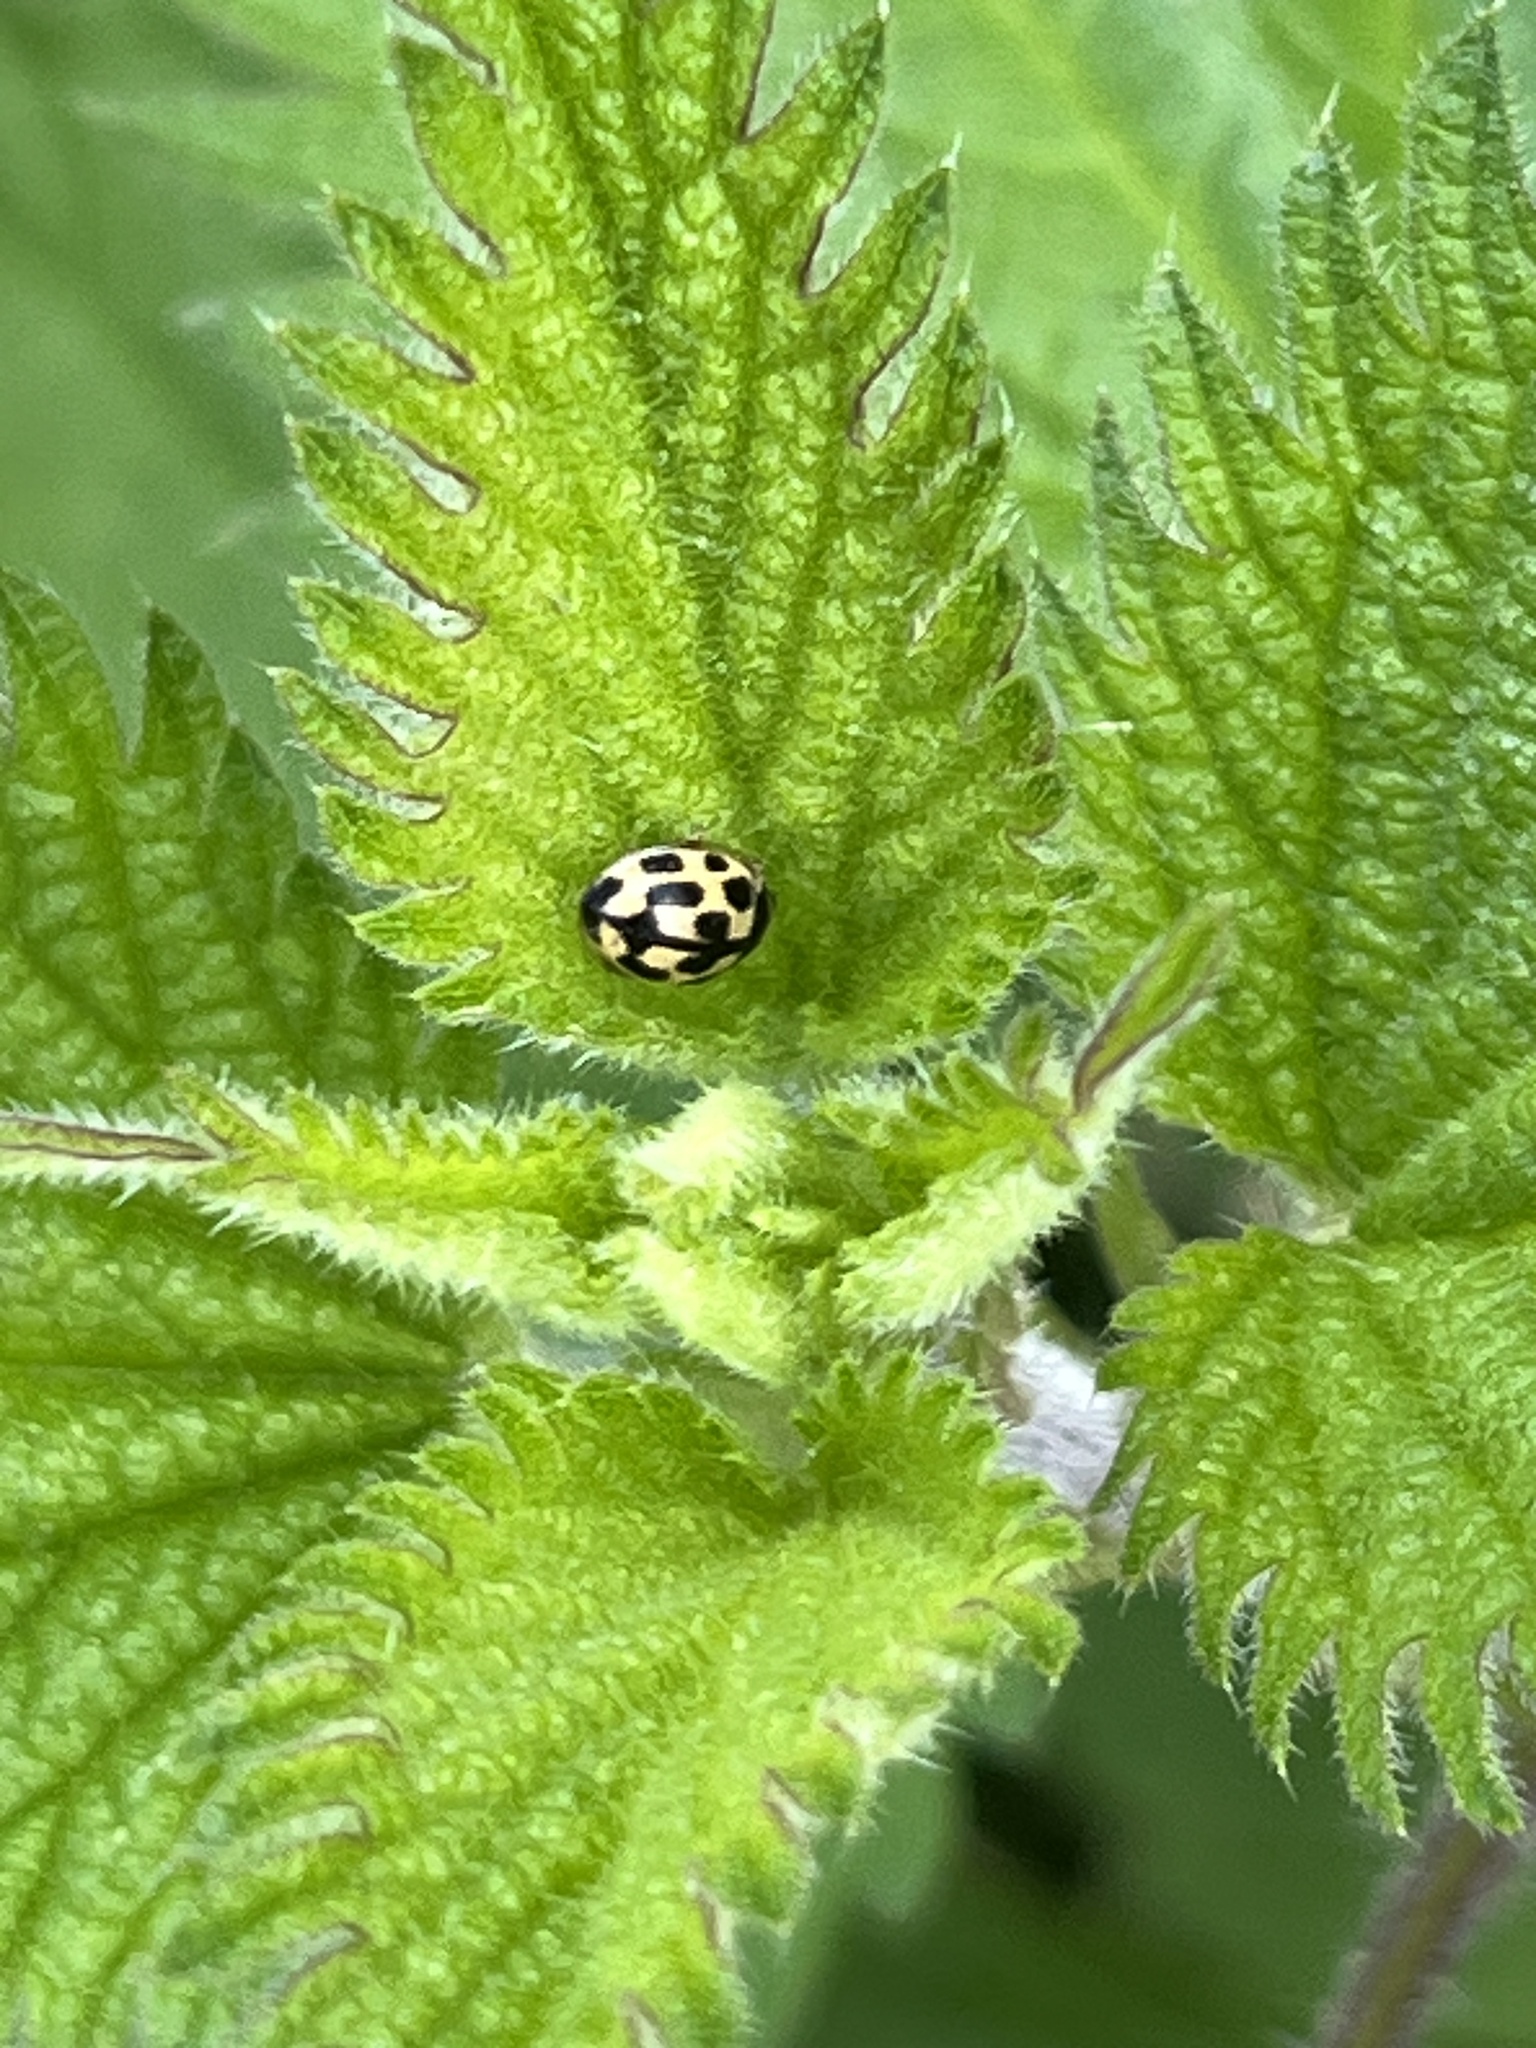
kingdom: Animalia
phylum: Arthropoda
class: Insecta
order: Coleoptera
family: Coccinellidae
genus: Propylaea
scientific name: Propylaea quatuordecimpunctata
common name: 14-spotted ladybird beetle
